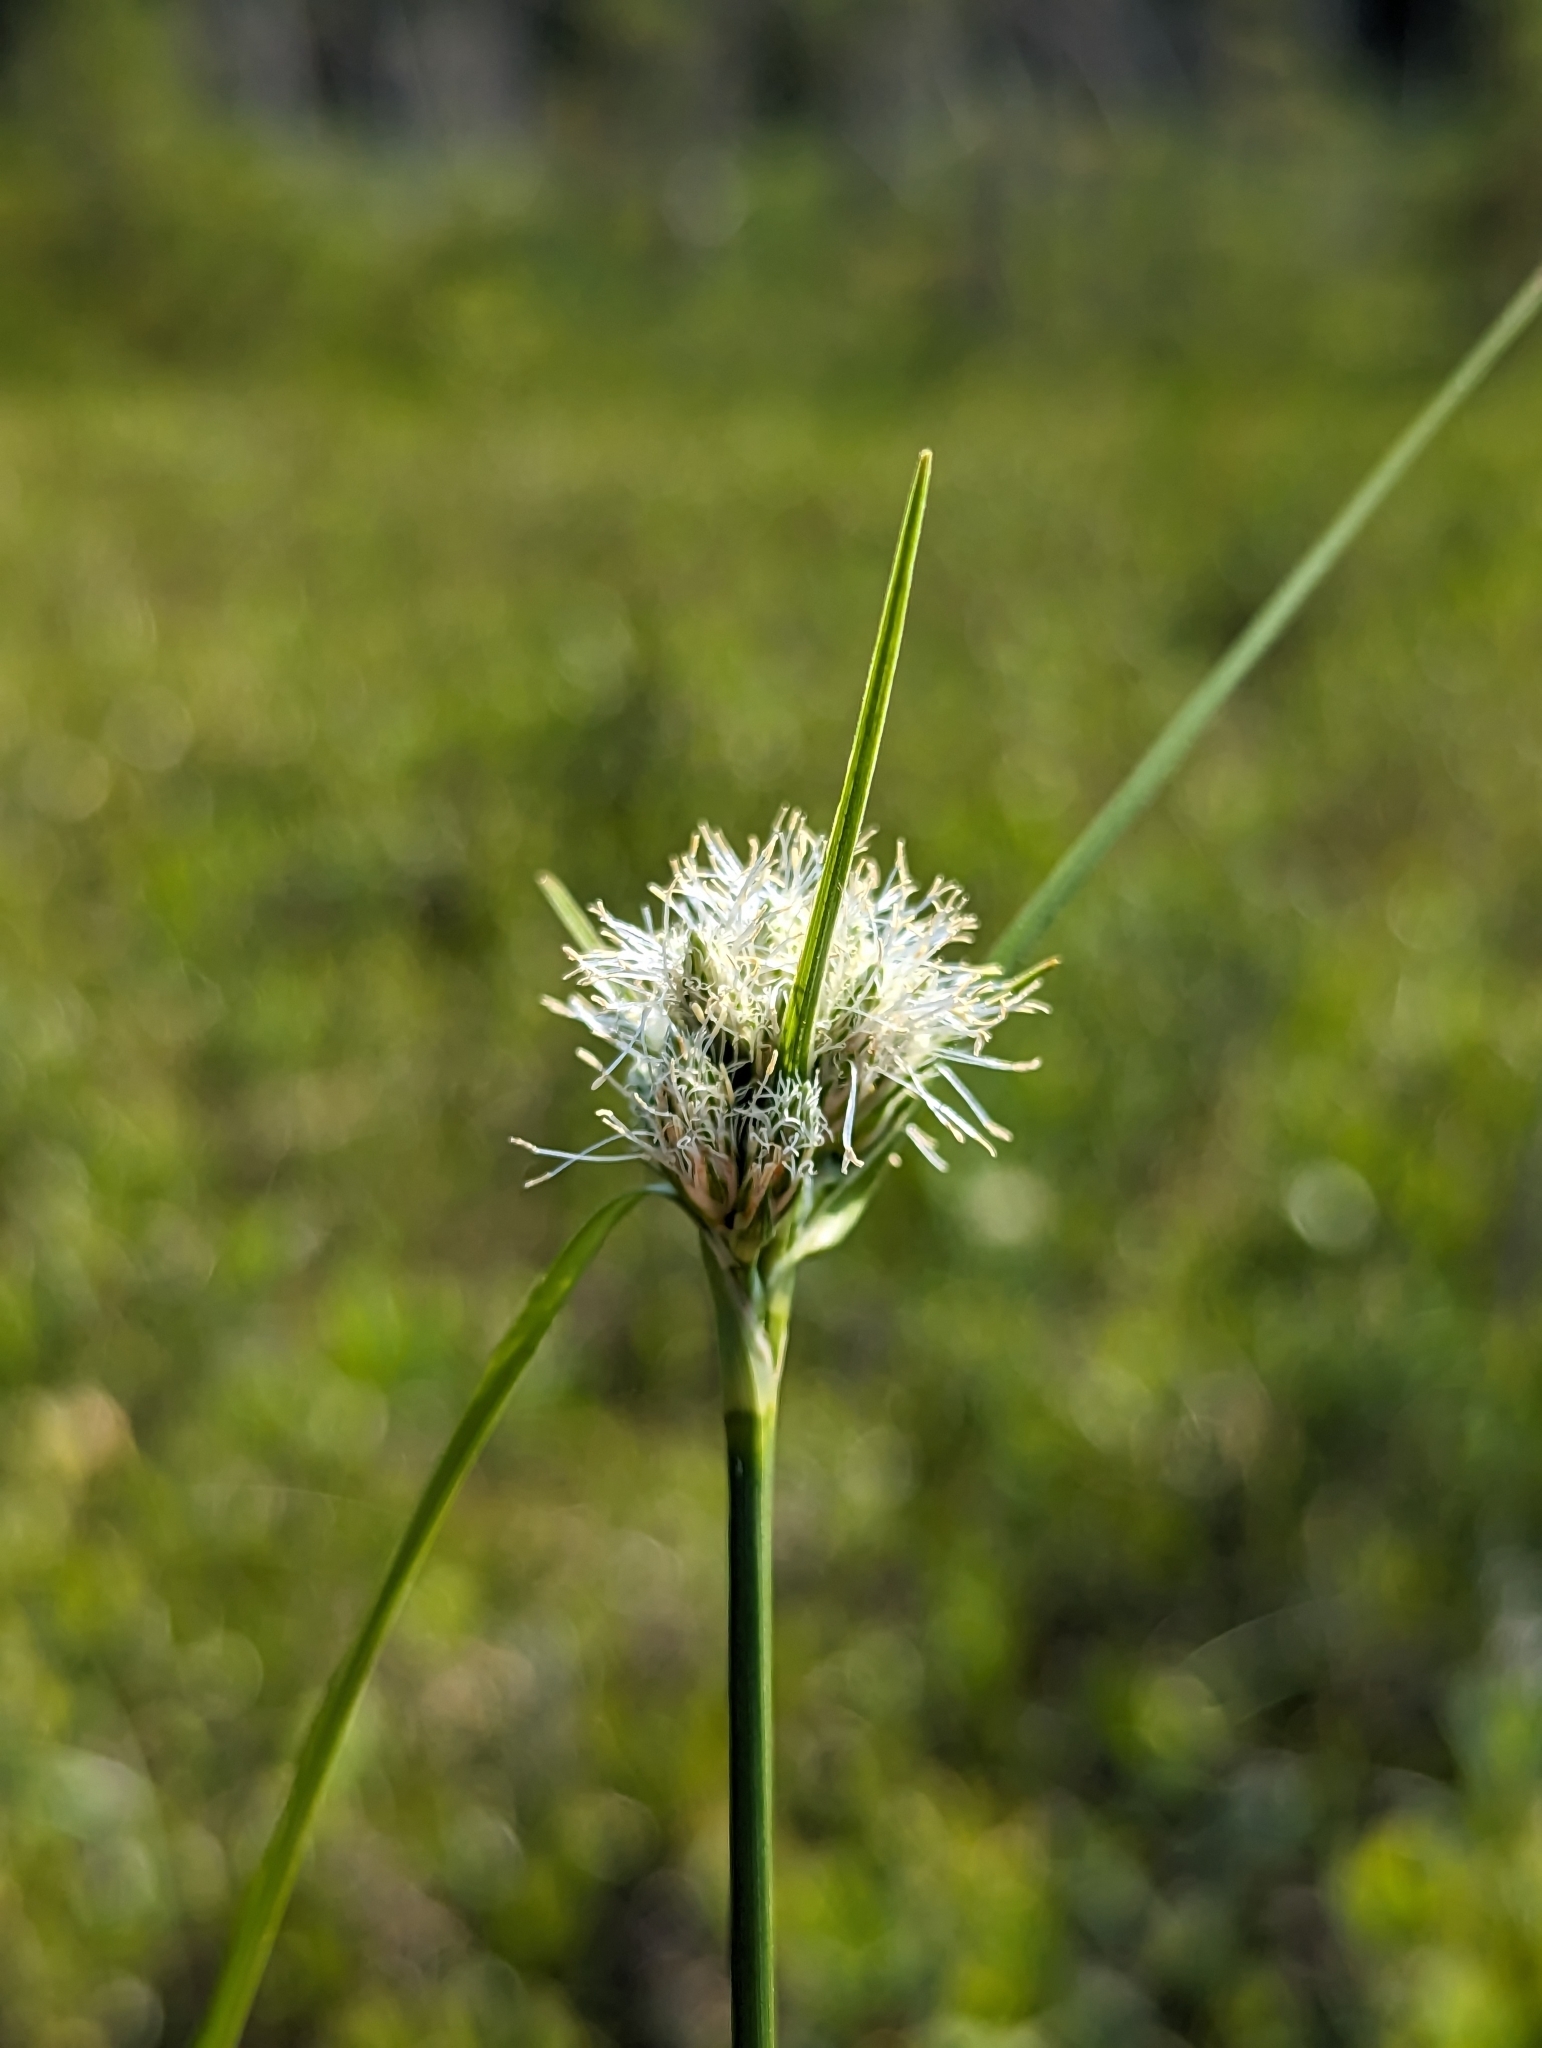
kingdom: Plantae
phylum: Tracheophyta
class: Liliopsida
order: Poales
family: Cyperaceae
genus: Eriophorum
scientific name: Eriophorum virginicum
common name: Tawny cottongrass
